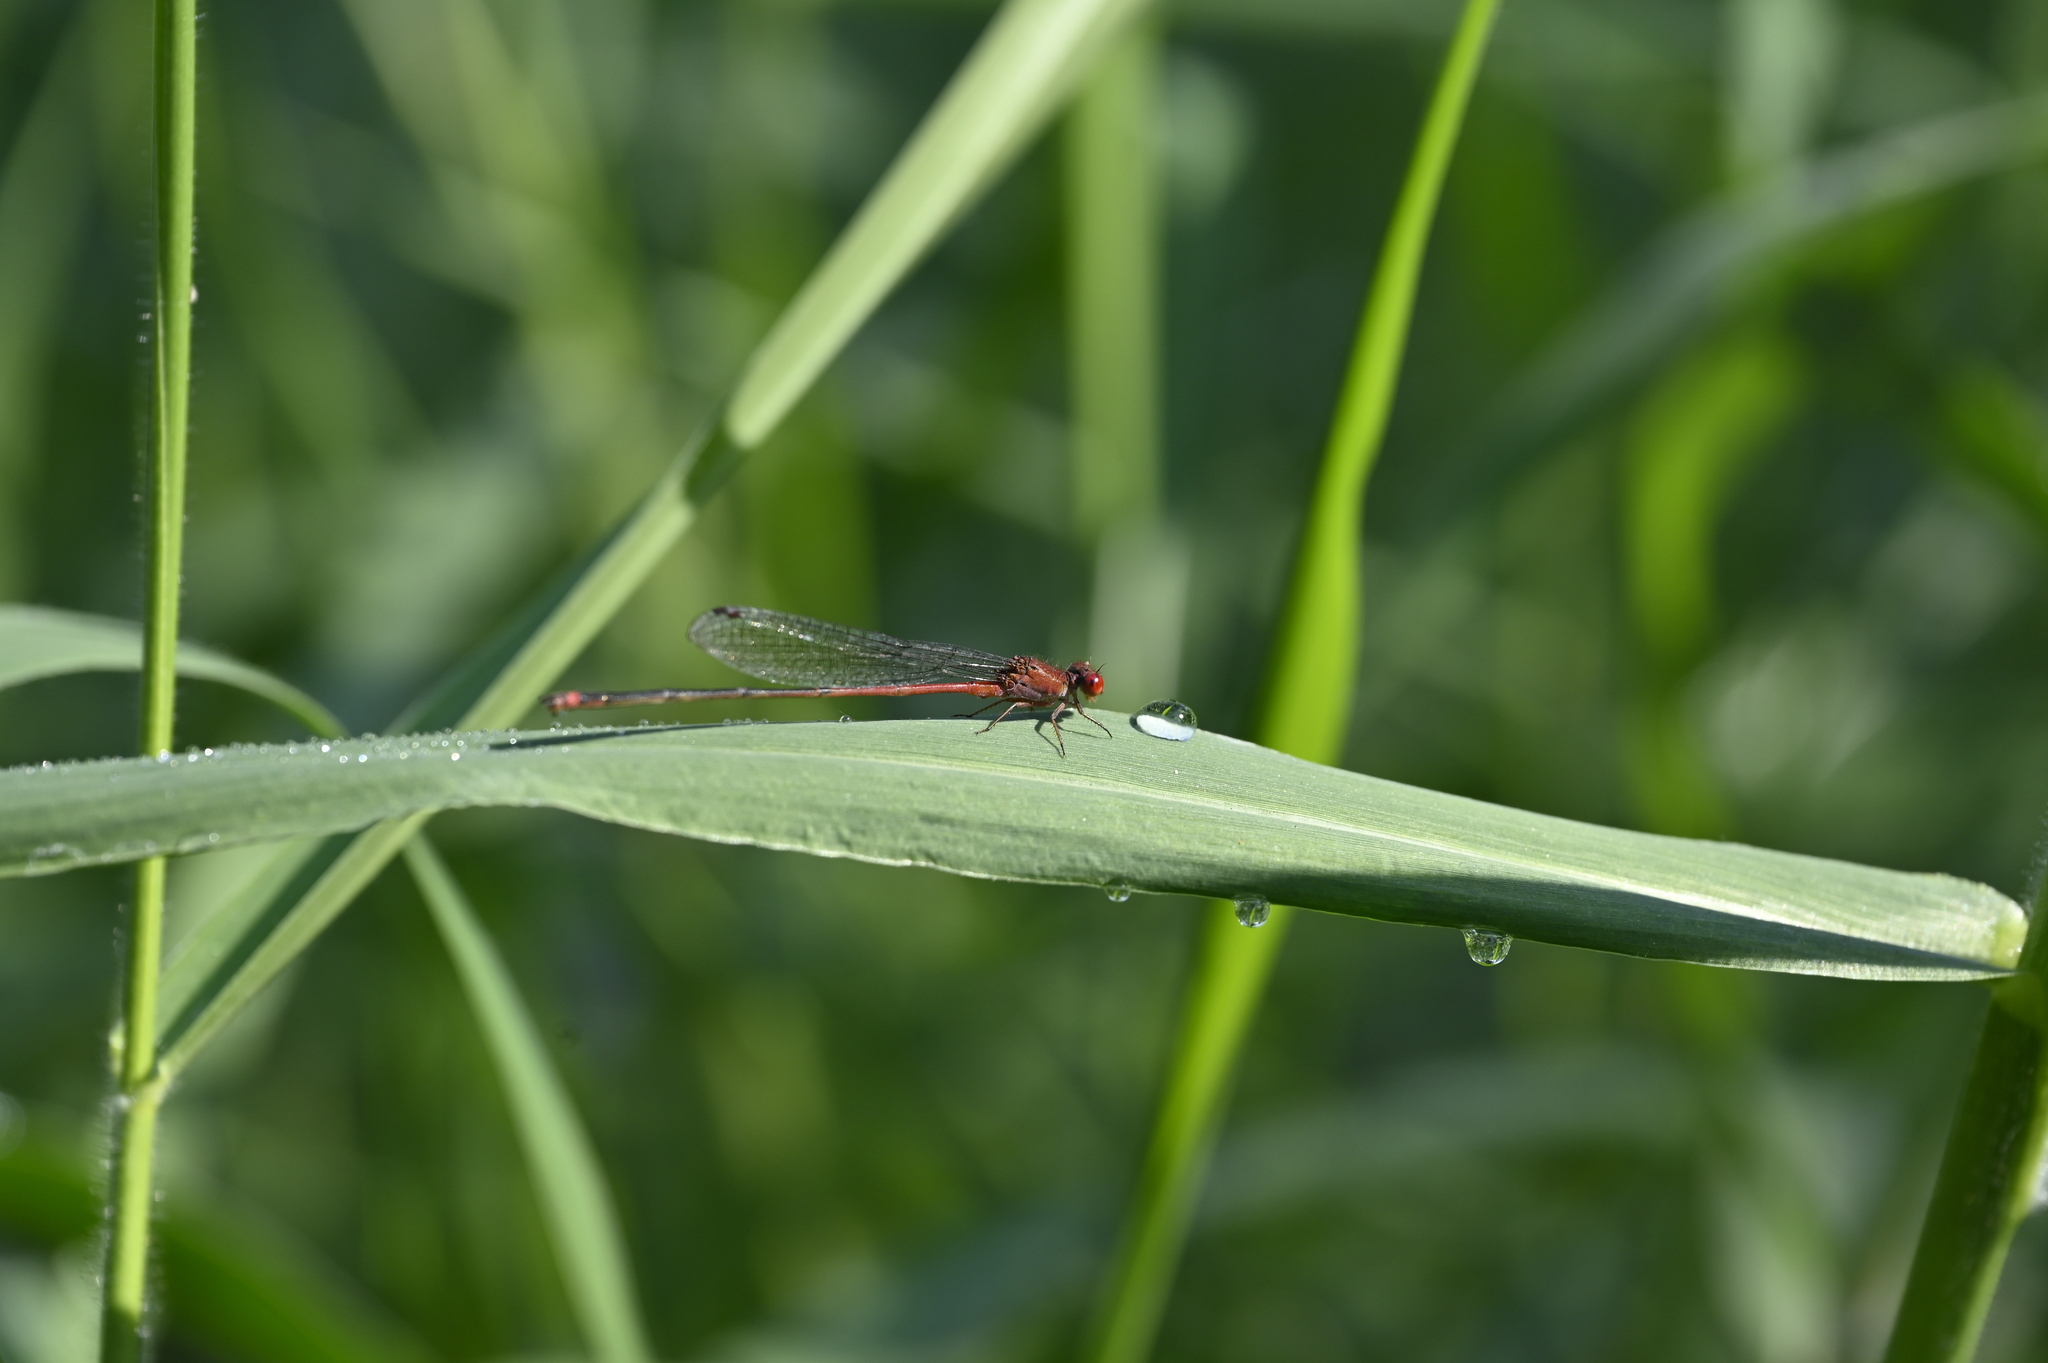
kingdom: Animalia
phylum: Arthropoda
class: Insecta
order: Odonata
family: Coenagrionidae
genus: Pseudagrion
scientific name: Pseudagrion pilidorsum
